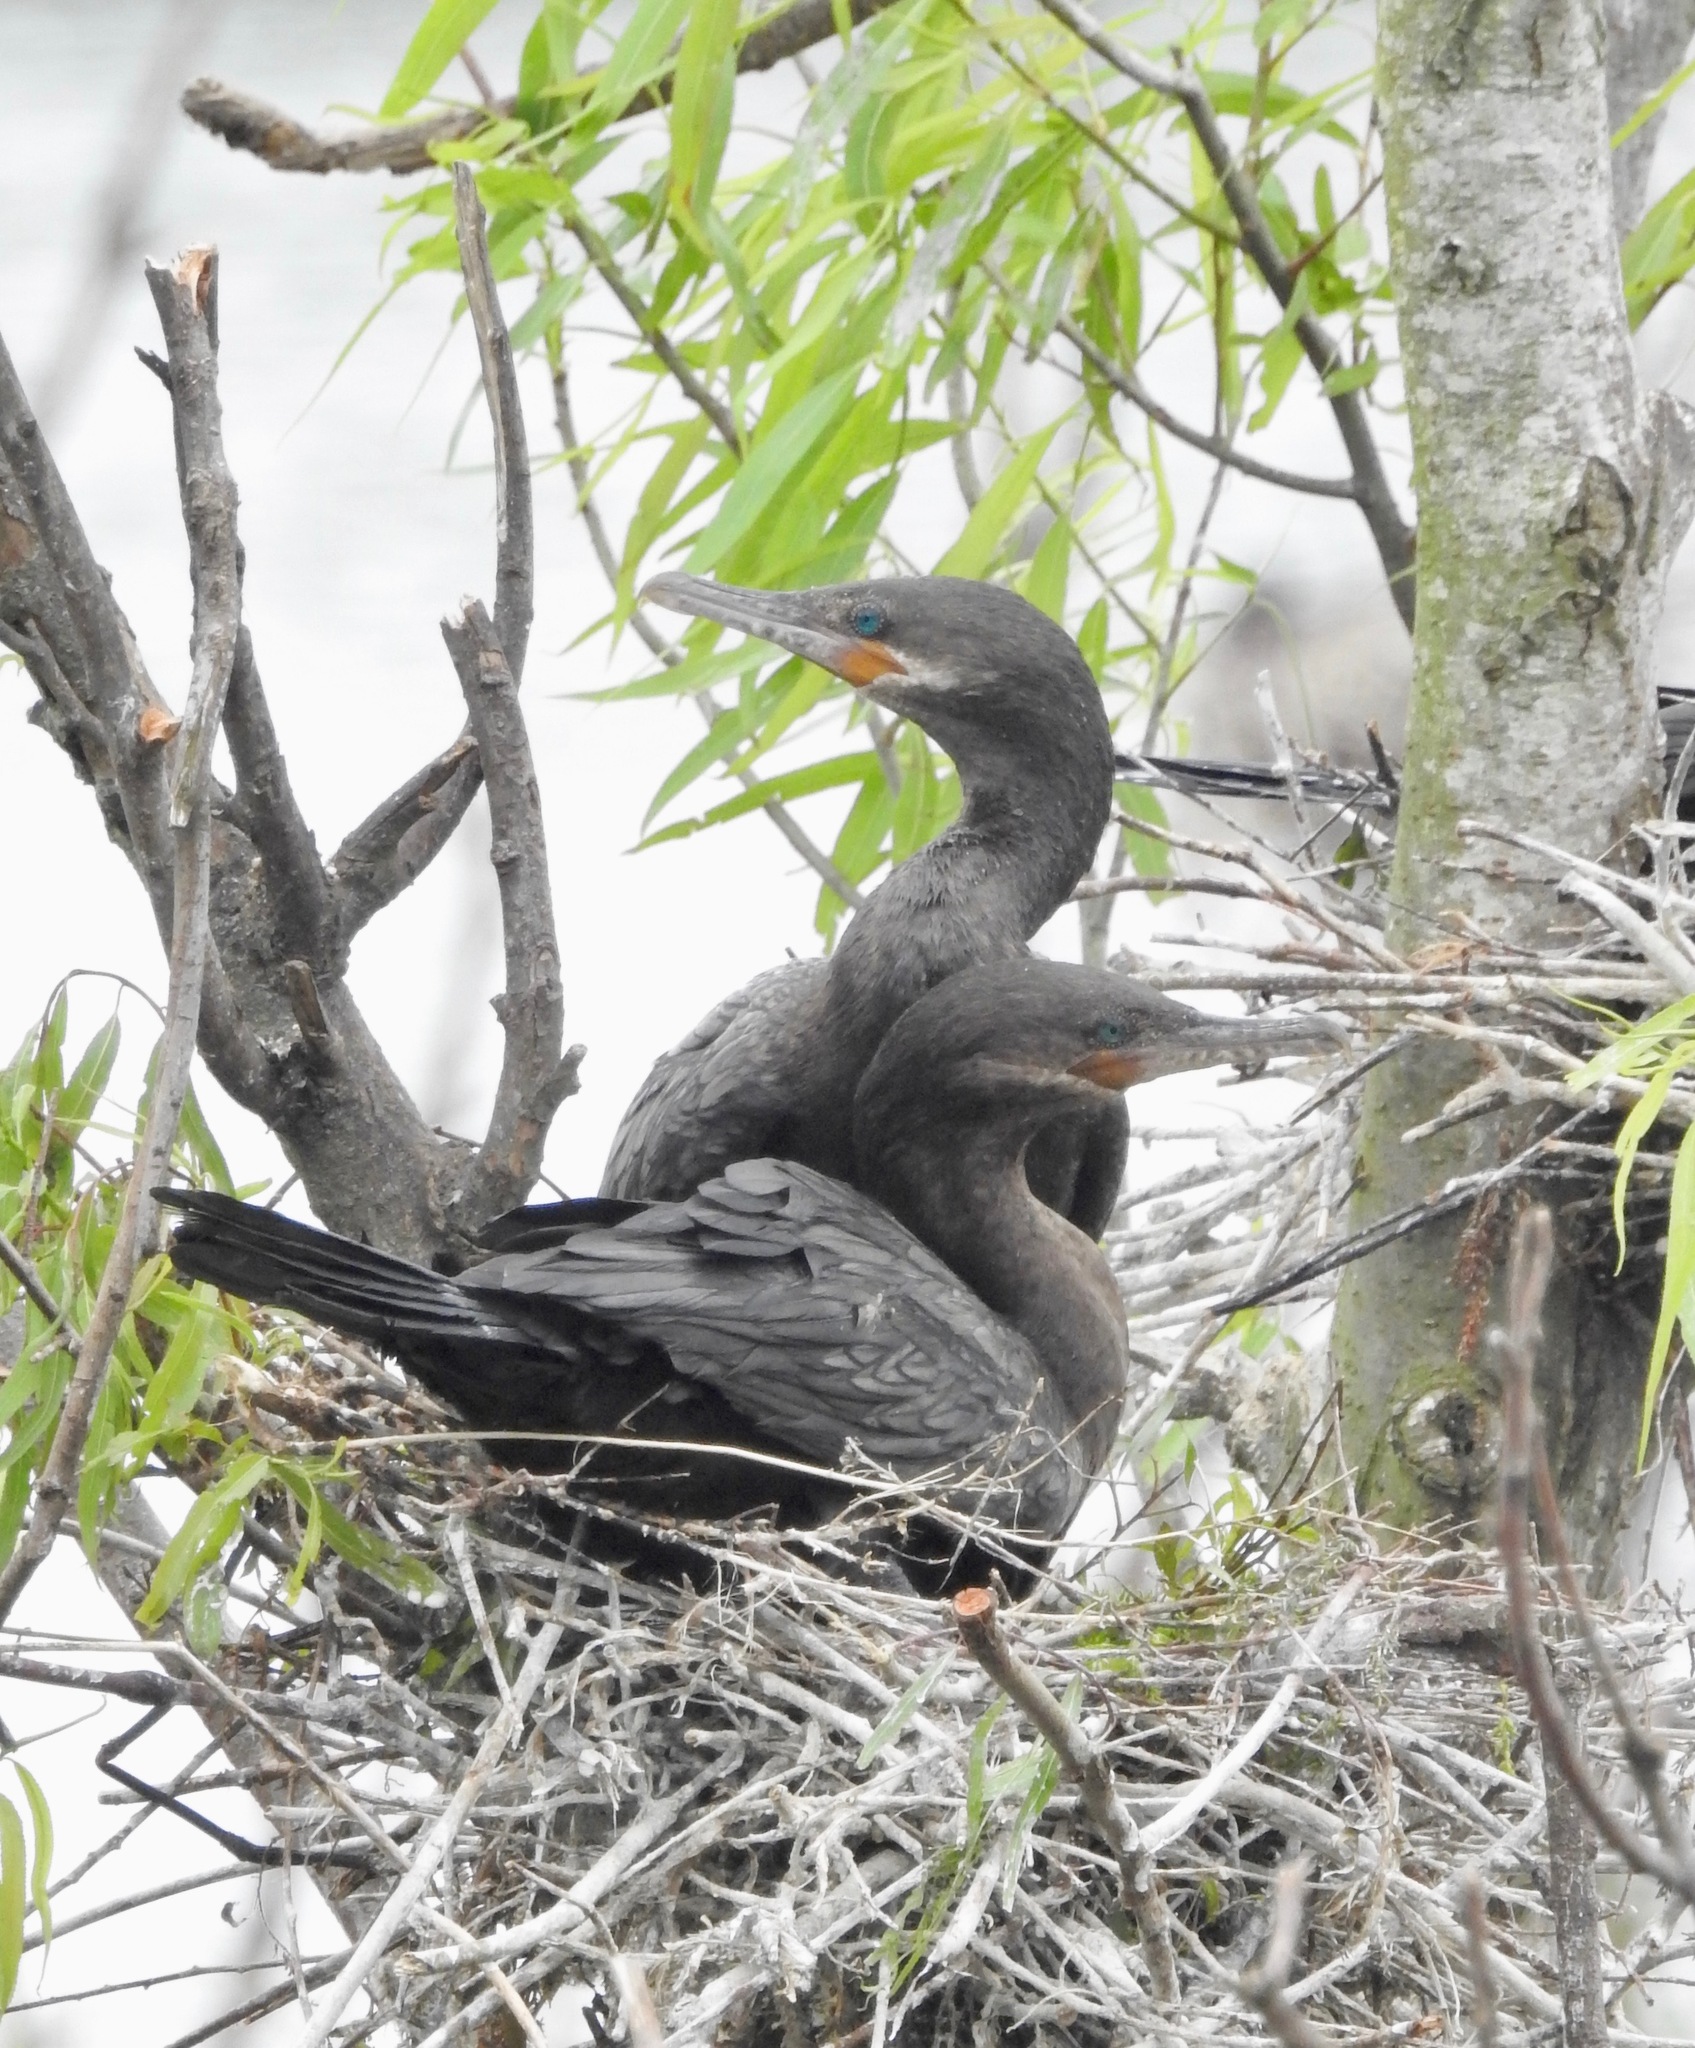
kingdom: Animalia
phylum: Chordata
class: Aves
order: Suliformes
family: Phalacrocoracidae
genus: Phalacrocorax
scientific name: Phalacrocorax brasilianus
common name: Neotropic cormorant
